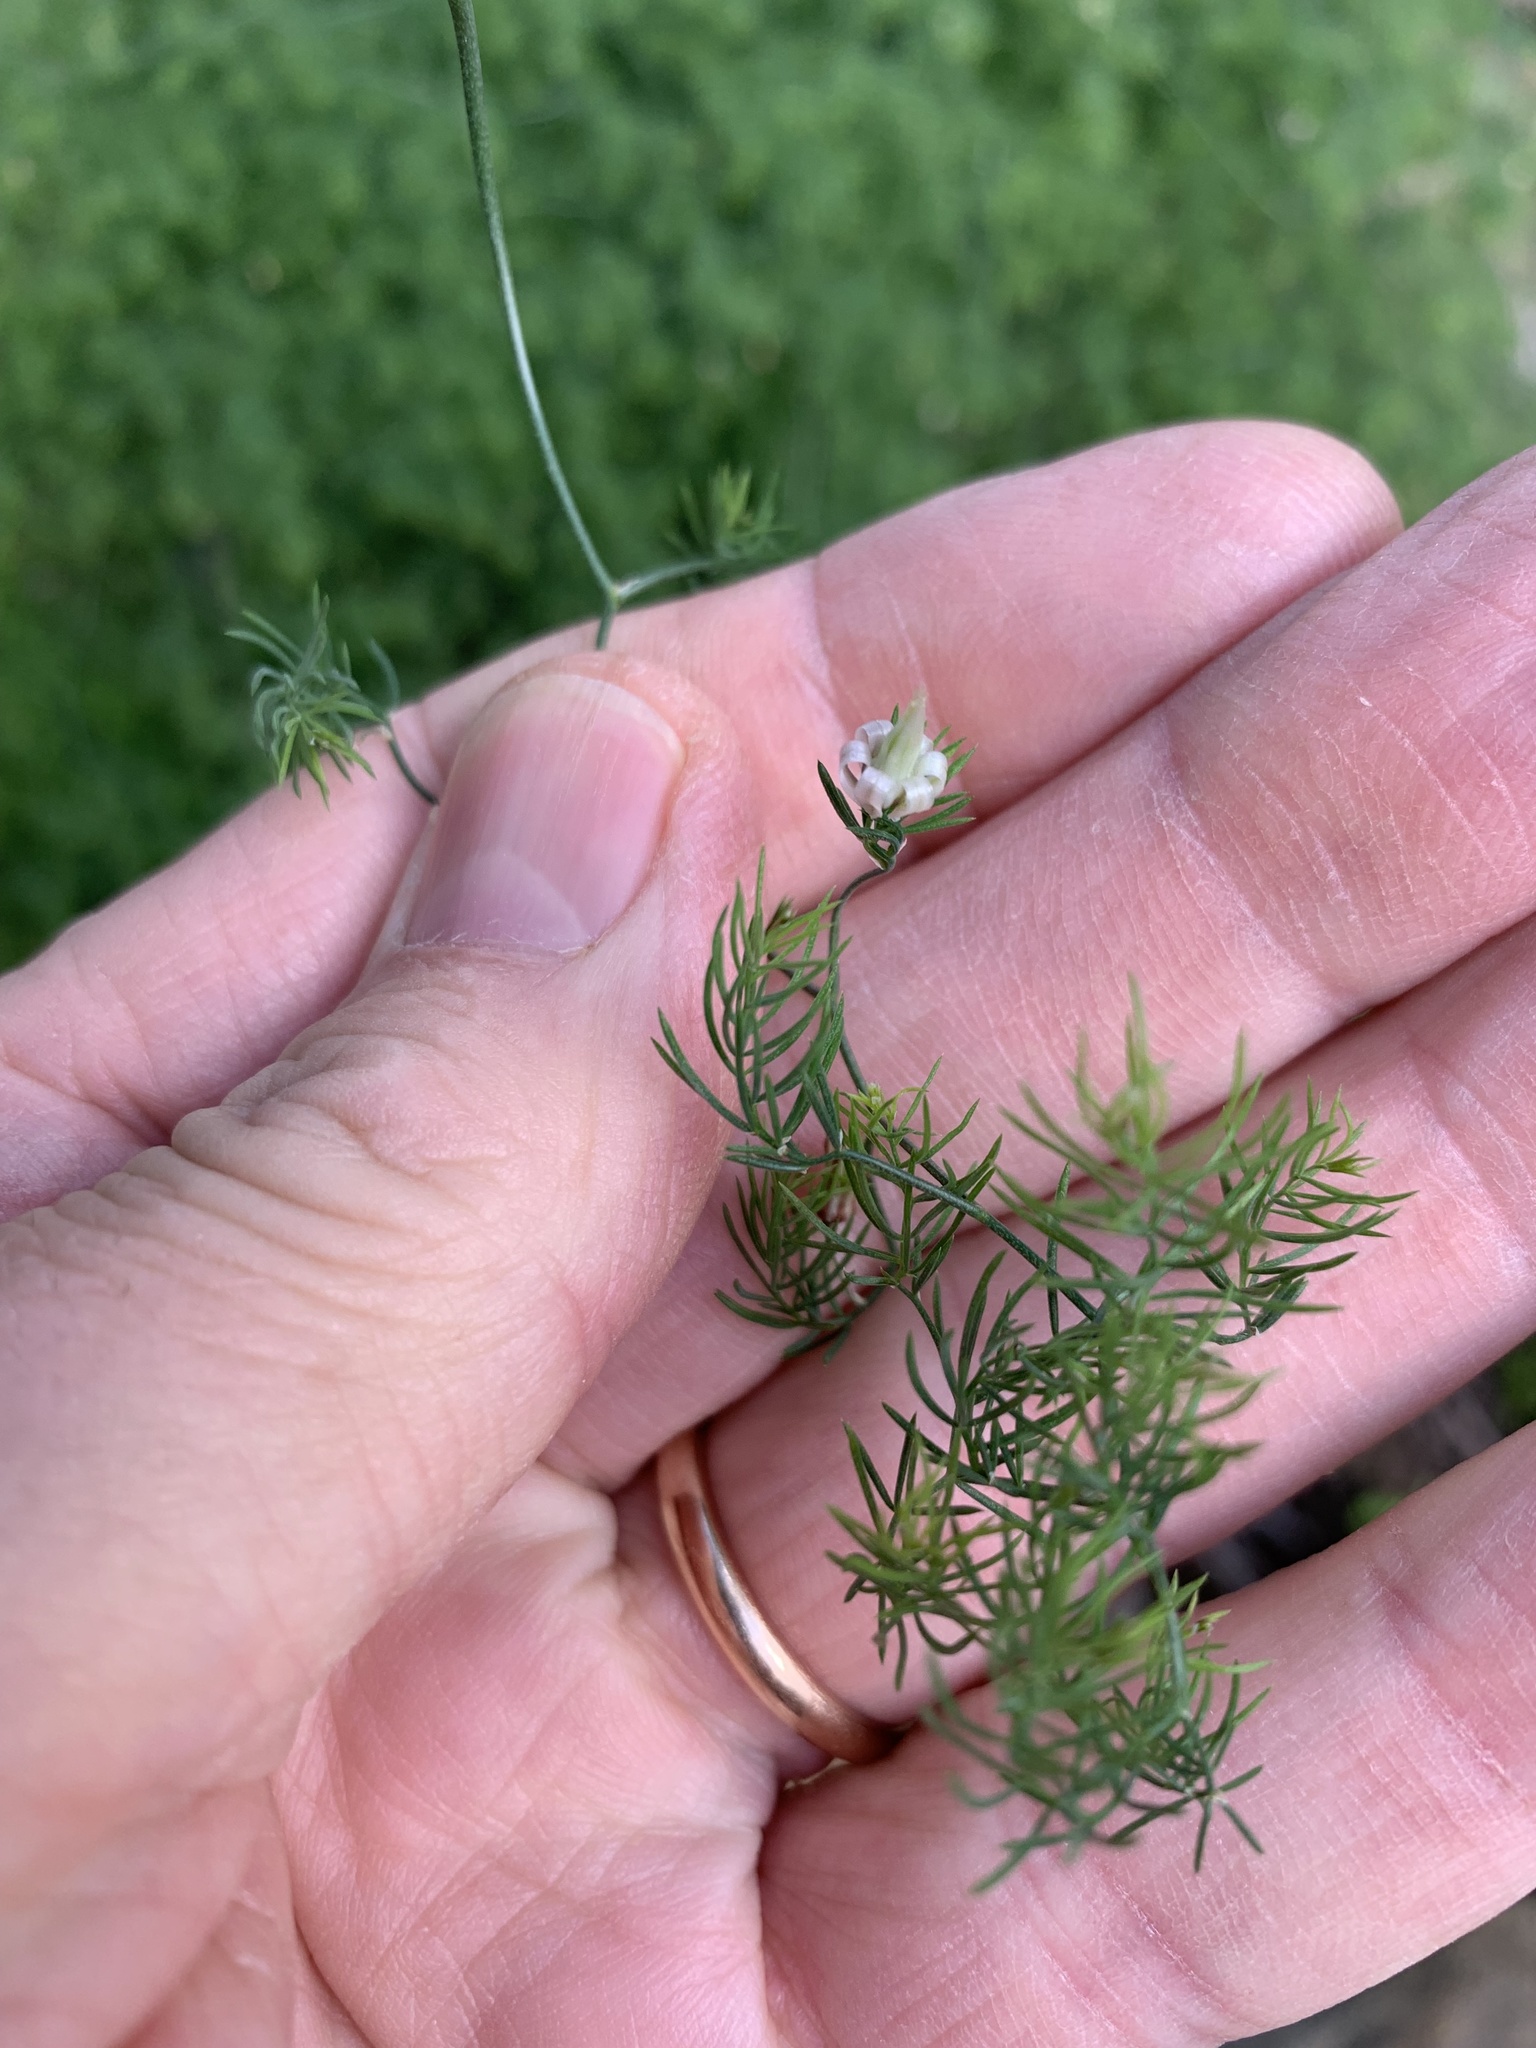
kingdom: Plantae
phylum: Tracheophyta
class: Liliopsida
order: Asparagales
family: Asparagaceae
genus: Asparagus
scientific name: Asparagus declinatus
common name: Bridal-creeper
